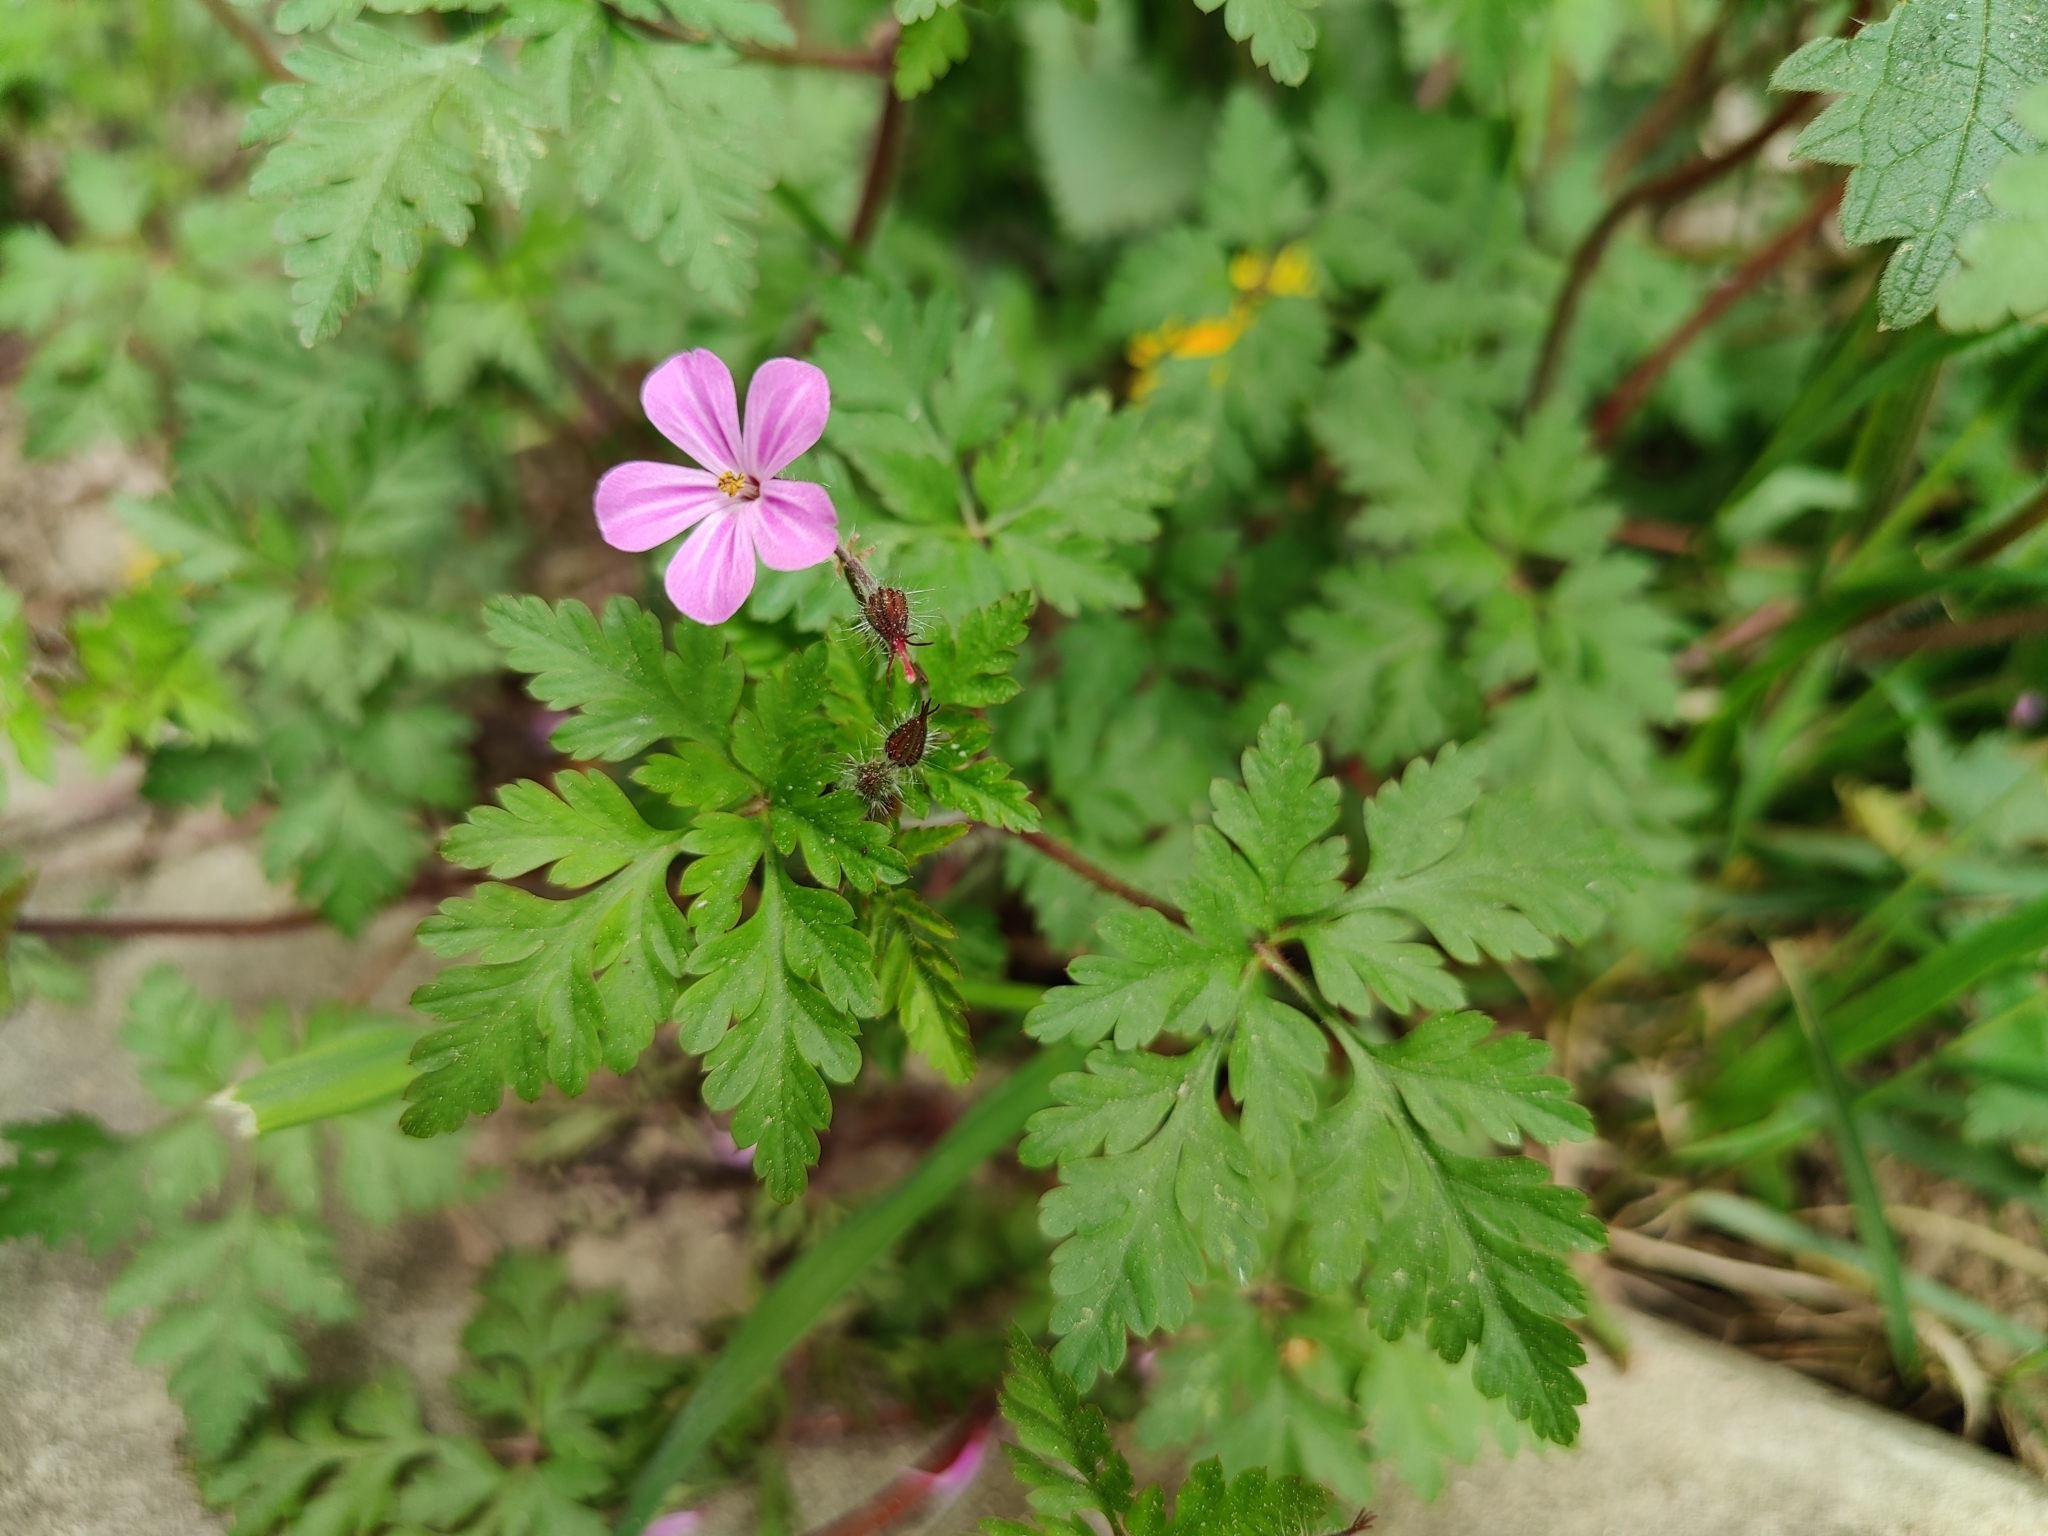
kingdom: Plantae
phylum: Tracheophyta
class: Magnoliopsida
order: Geraniales
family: Geraniaceae
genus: Geranium
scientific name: Geranium robertianum
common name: Herb-robert
